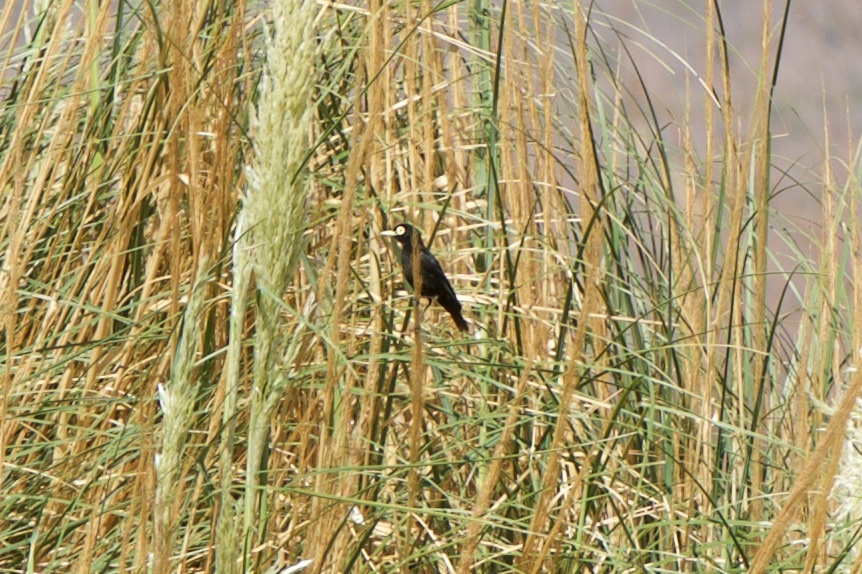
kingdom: Animalia
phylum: Chordata
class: Aves
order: Passeriformes
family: Tyrannidae
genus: Hymenops
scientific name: Hymenops perspicillatus
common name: Spectacled tyrant
